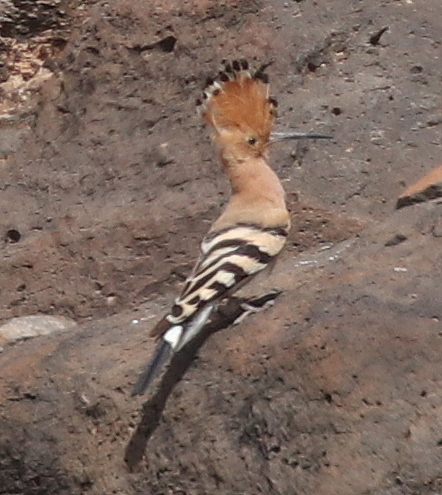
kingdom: Animalia
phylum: Chordata
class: Aves
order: Bucerotiformes
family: Upupidae
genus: Upupa
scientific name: Upupa epops
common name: Eurasian hoopoe
